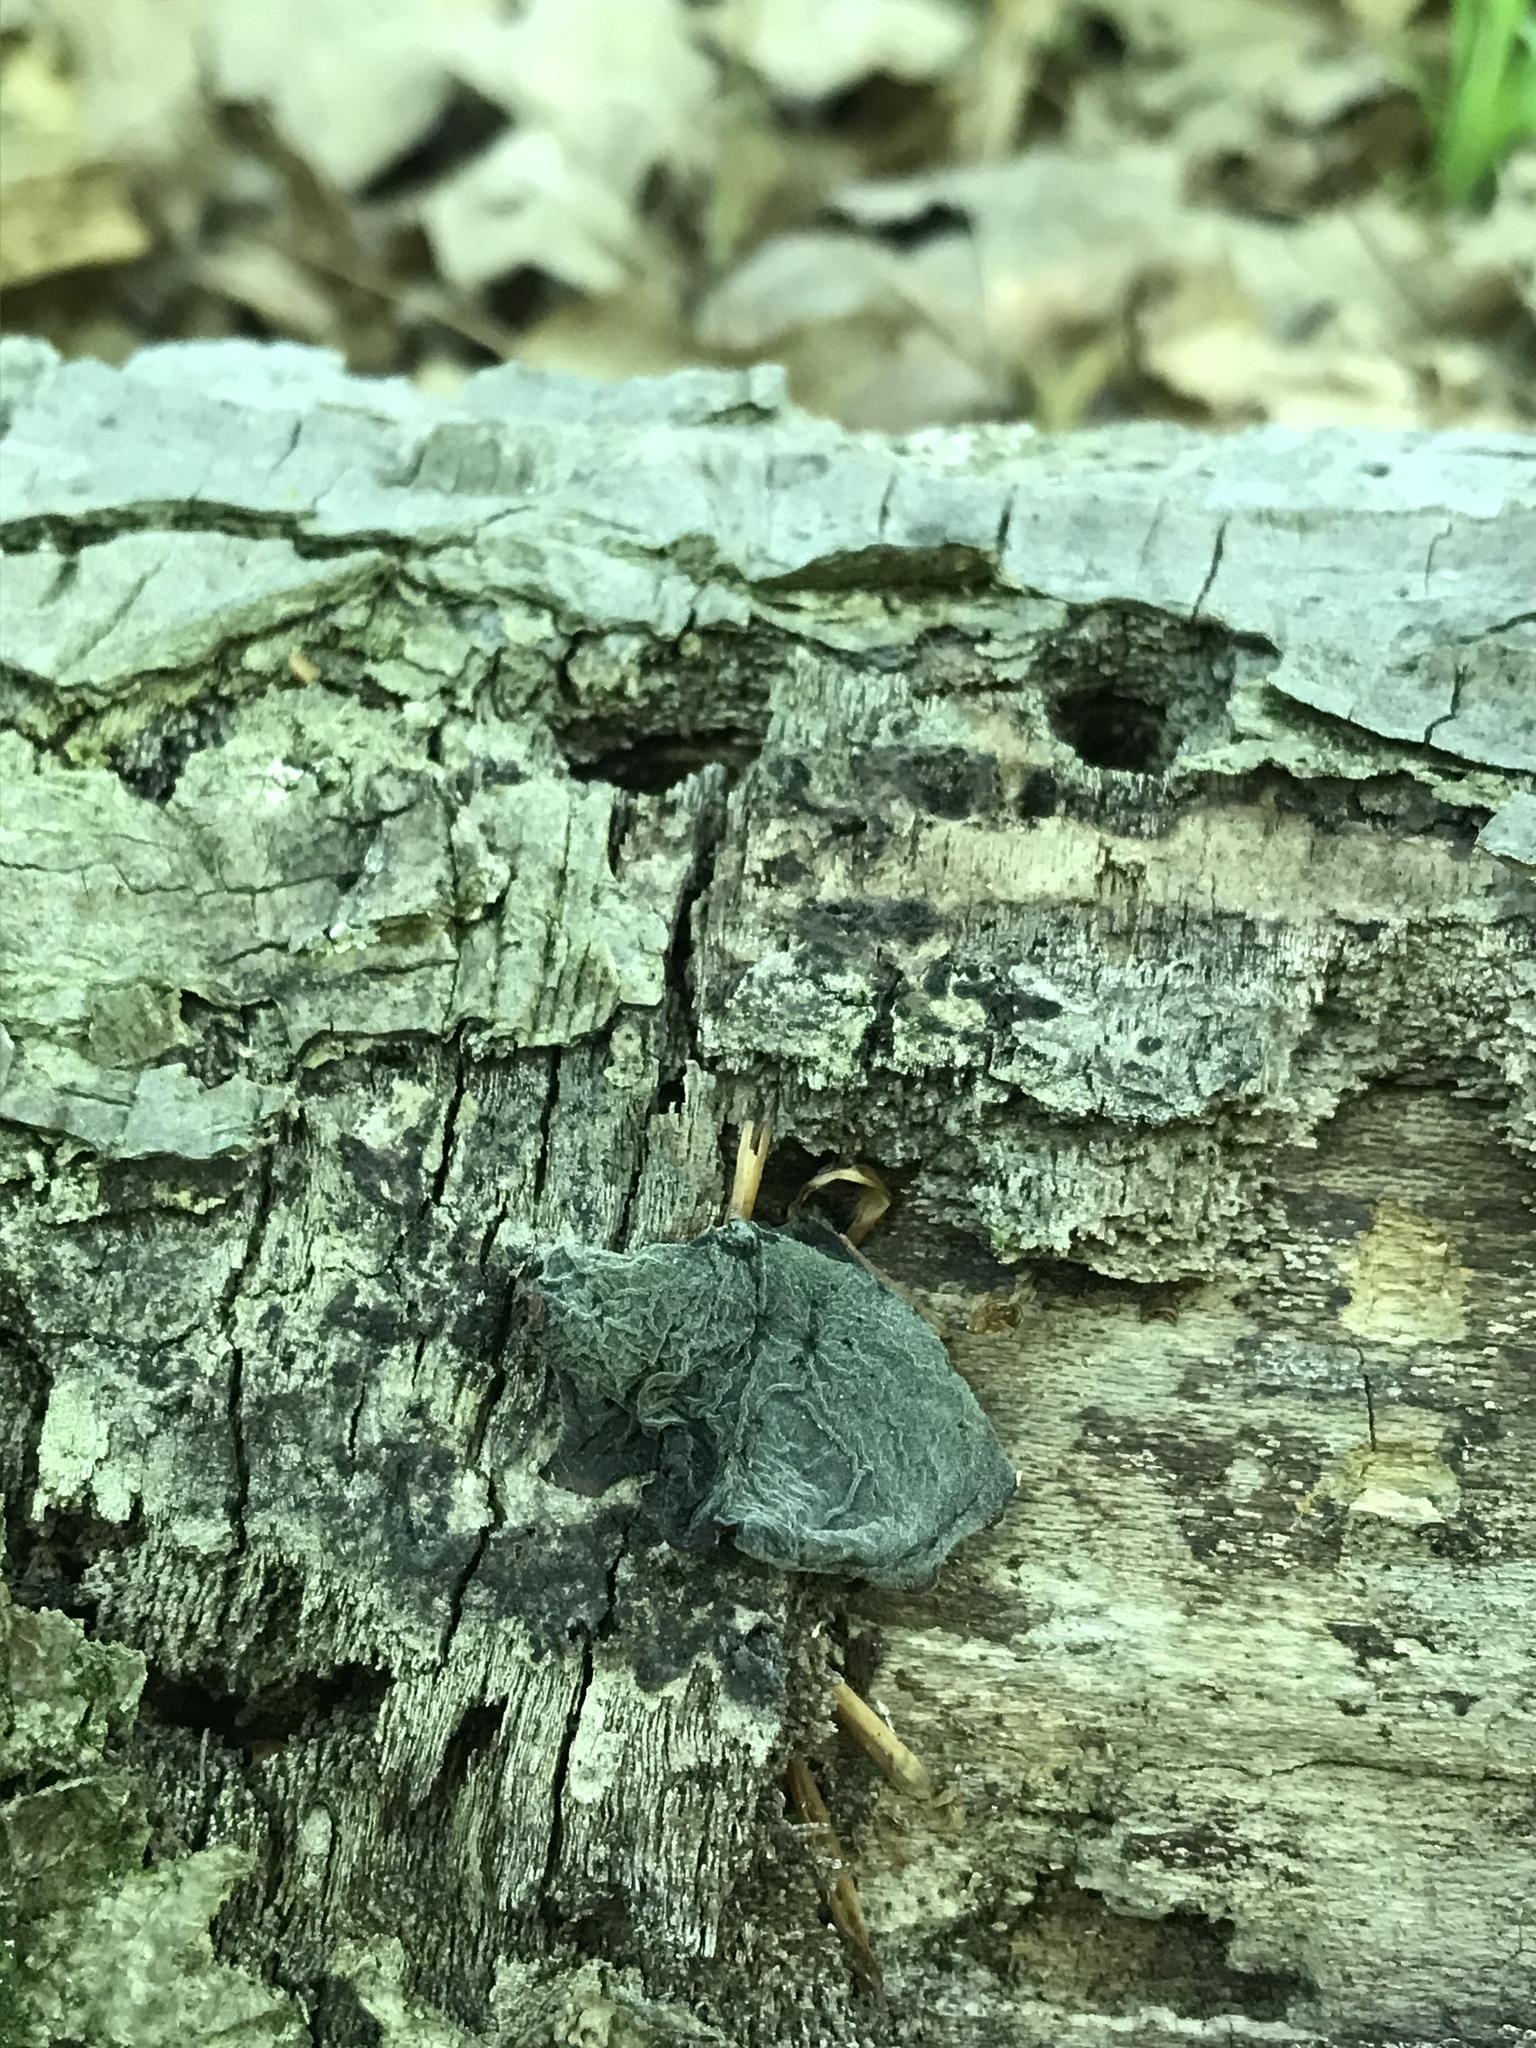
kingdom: Fungi
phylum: Basidiomycota
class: Agaricomycetes
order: Auriculariales
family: Auriculariaceae
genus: Auricularia
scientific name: Auricularia angiospermarum
